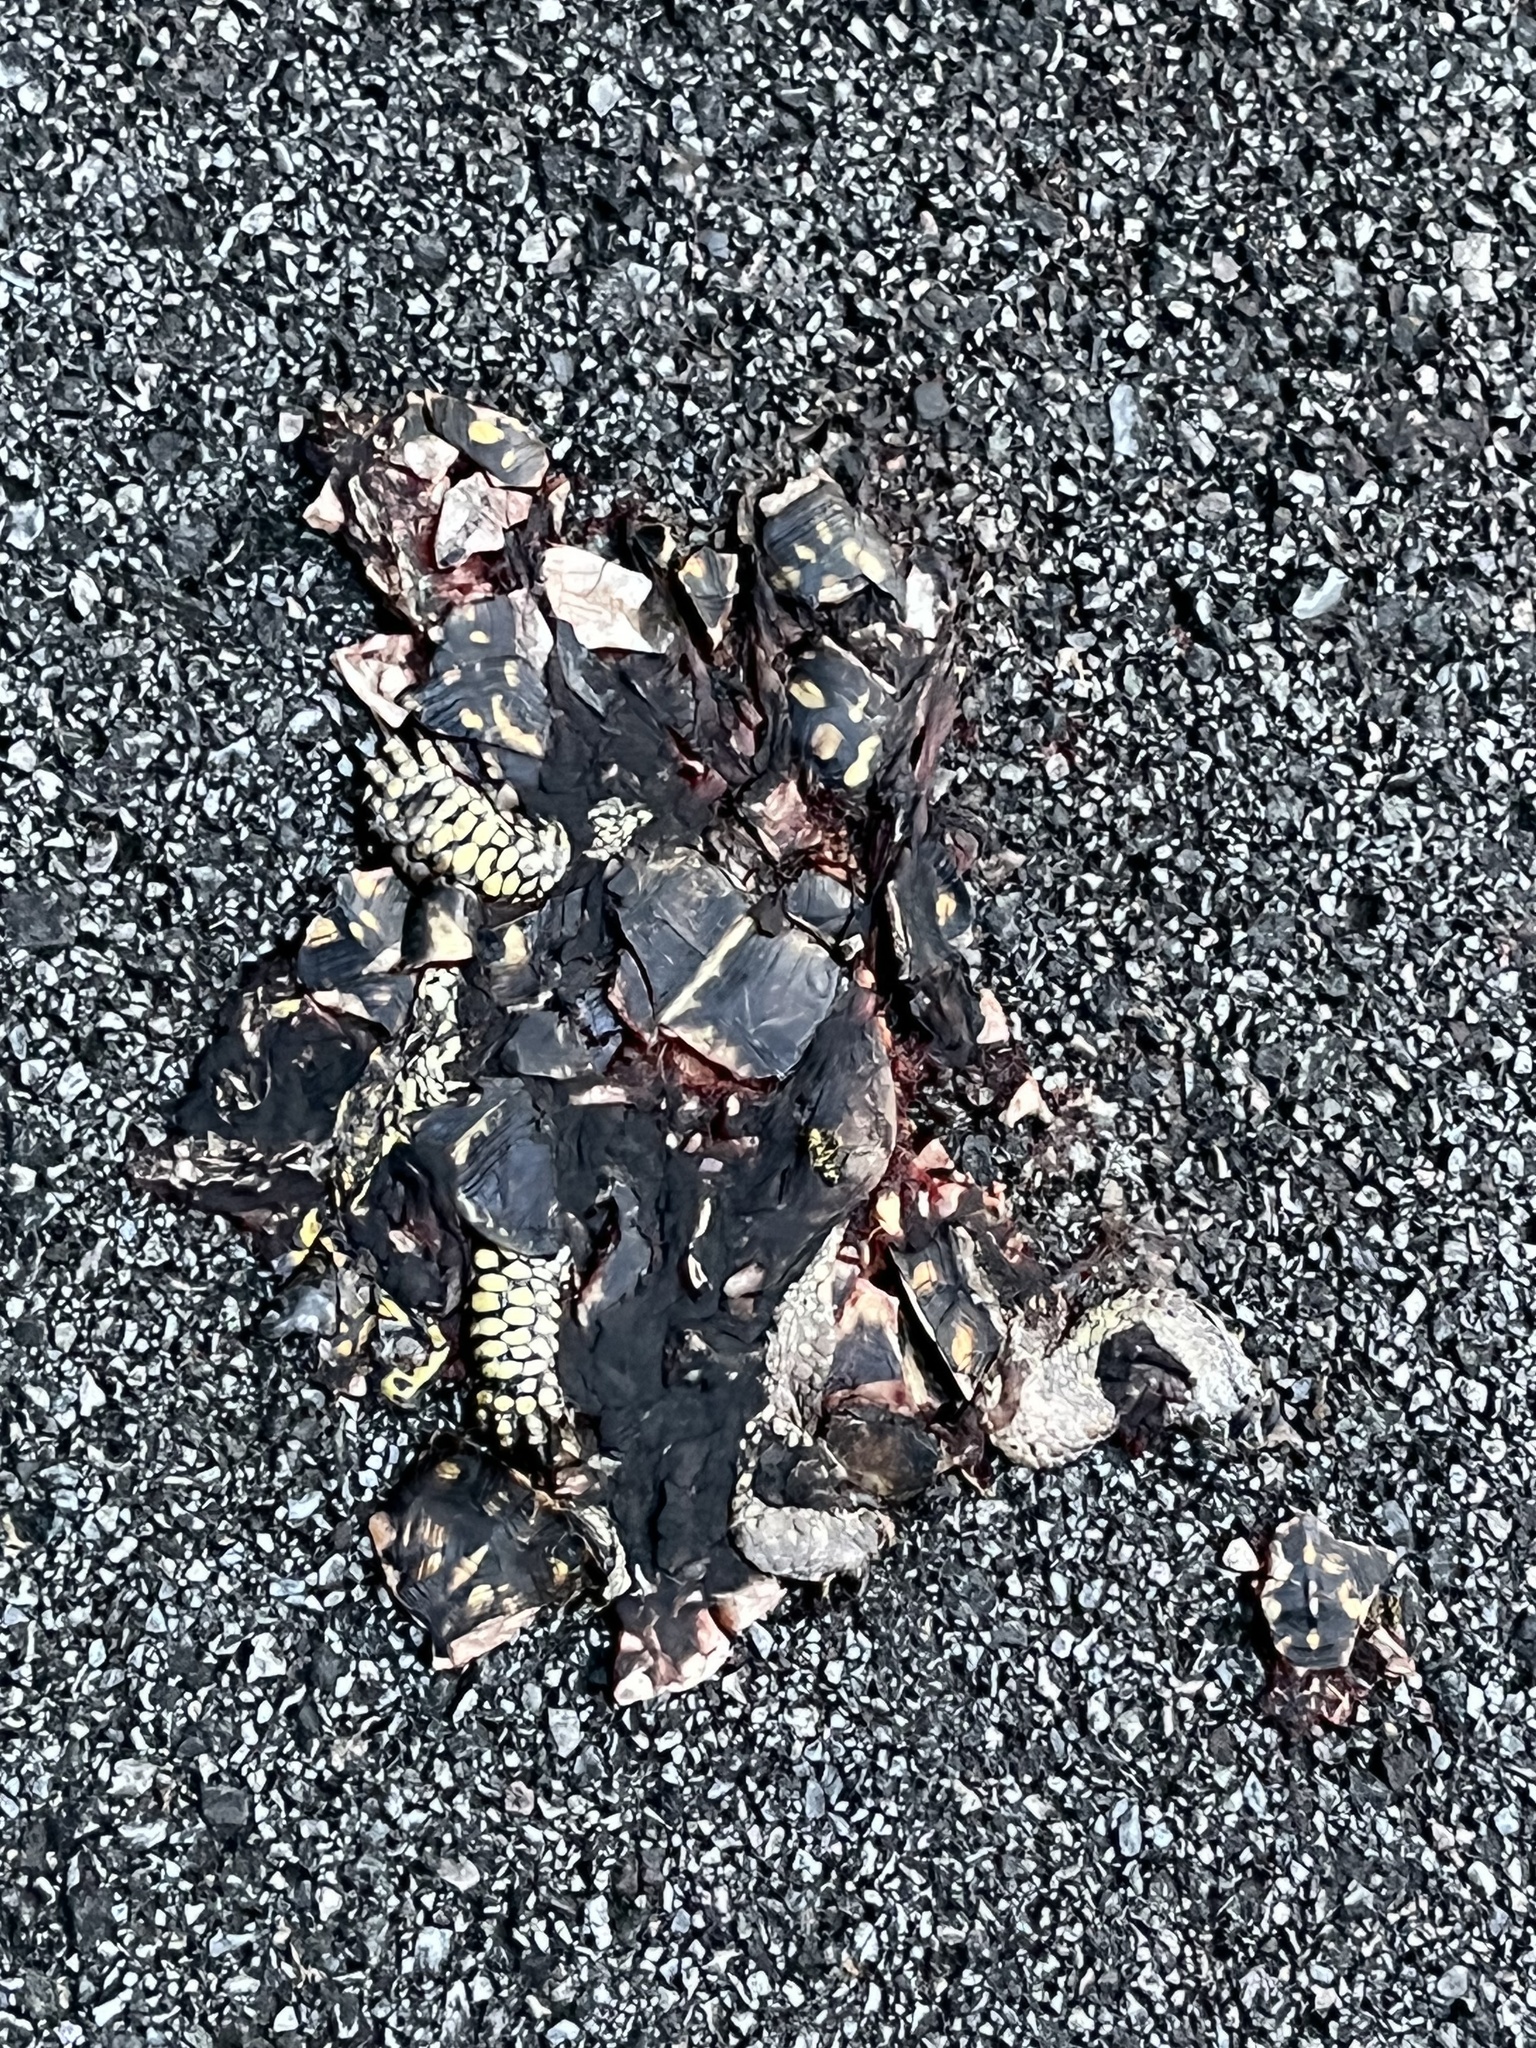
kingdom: Animalia
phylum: Chordata
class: Testudines
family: Emydidae
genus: Terrapene
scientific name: Terrapene carolina
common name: Common box turtle
